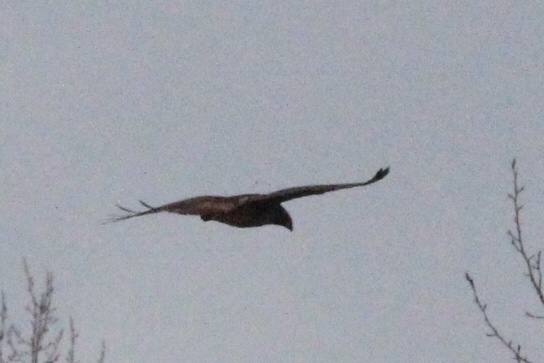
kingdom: Animalia
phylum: Chordata
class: Aves
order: Accipitriformes
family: Accipitridae
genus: Buteo
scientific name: Buteo jamaicensis
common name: Red-tailed hawk
